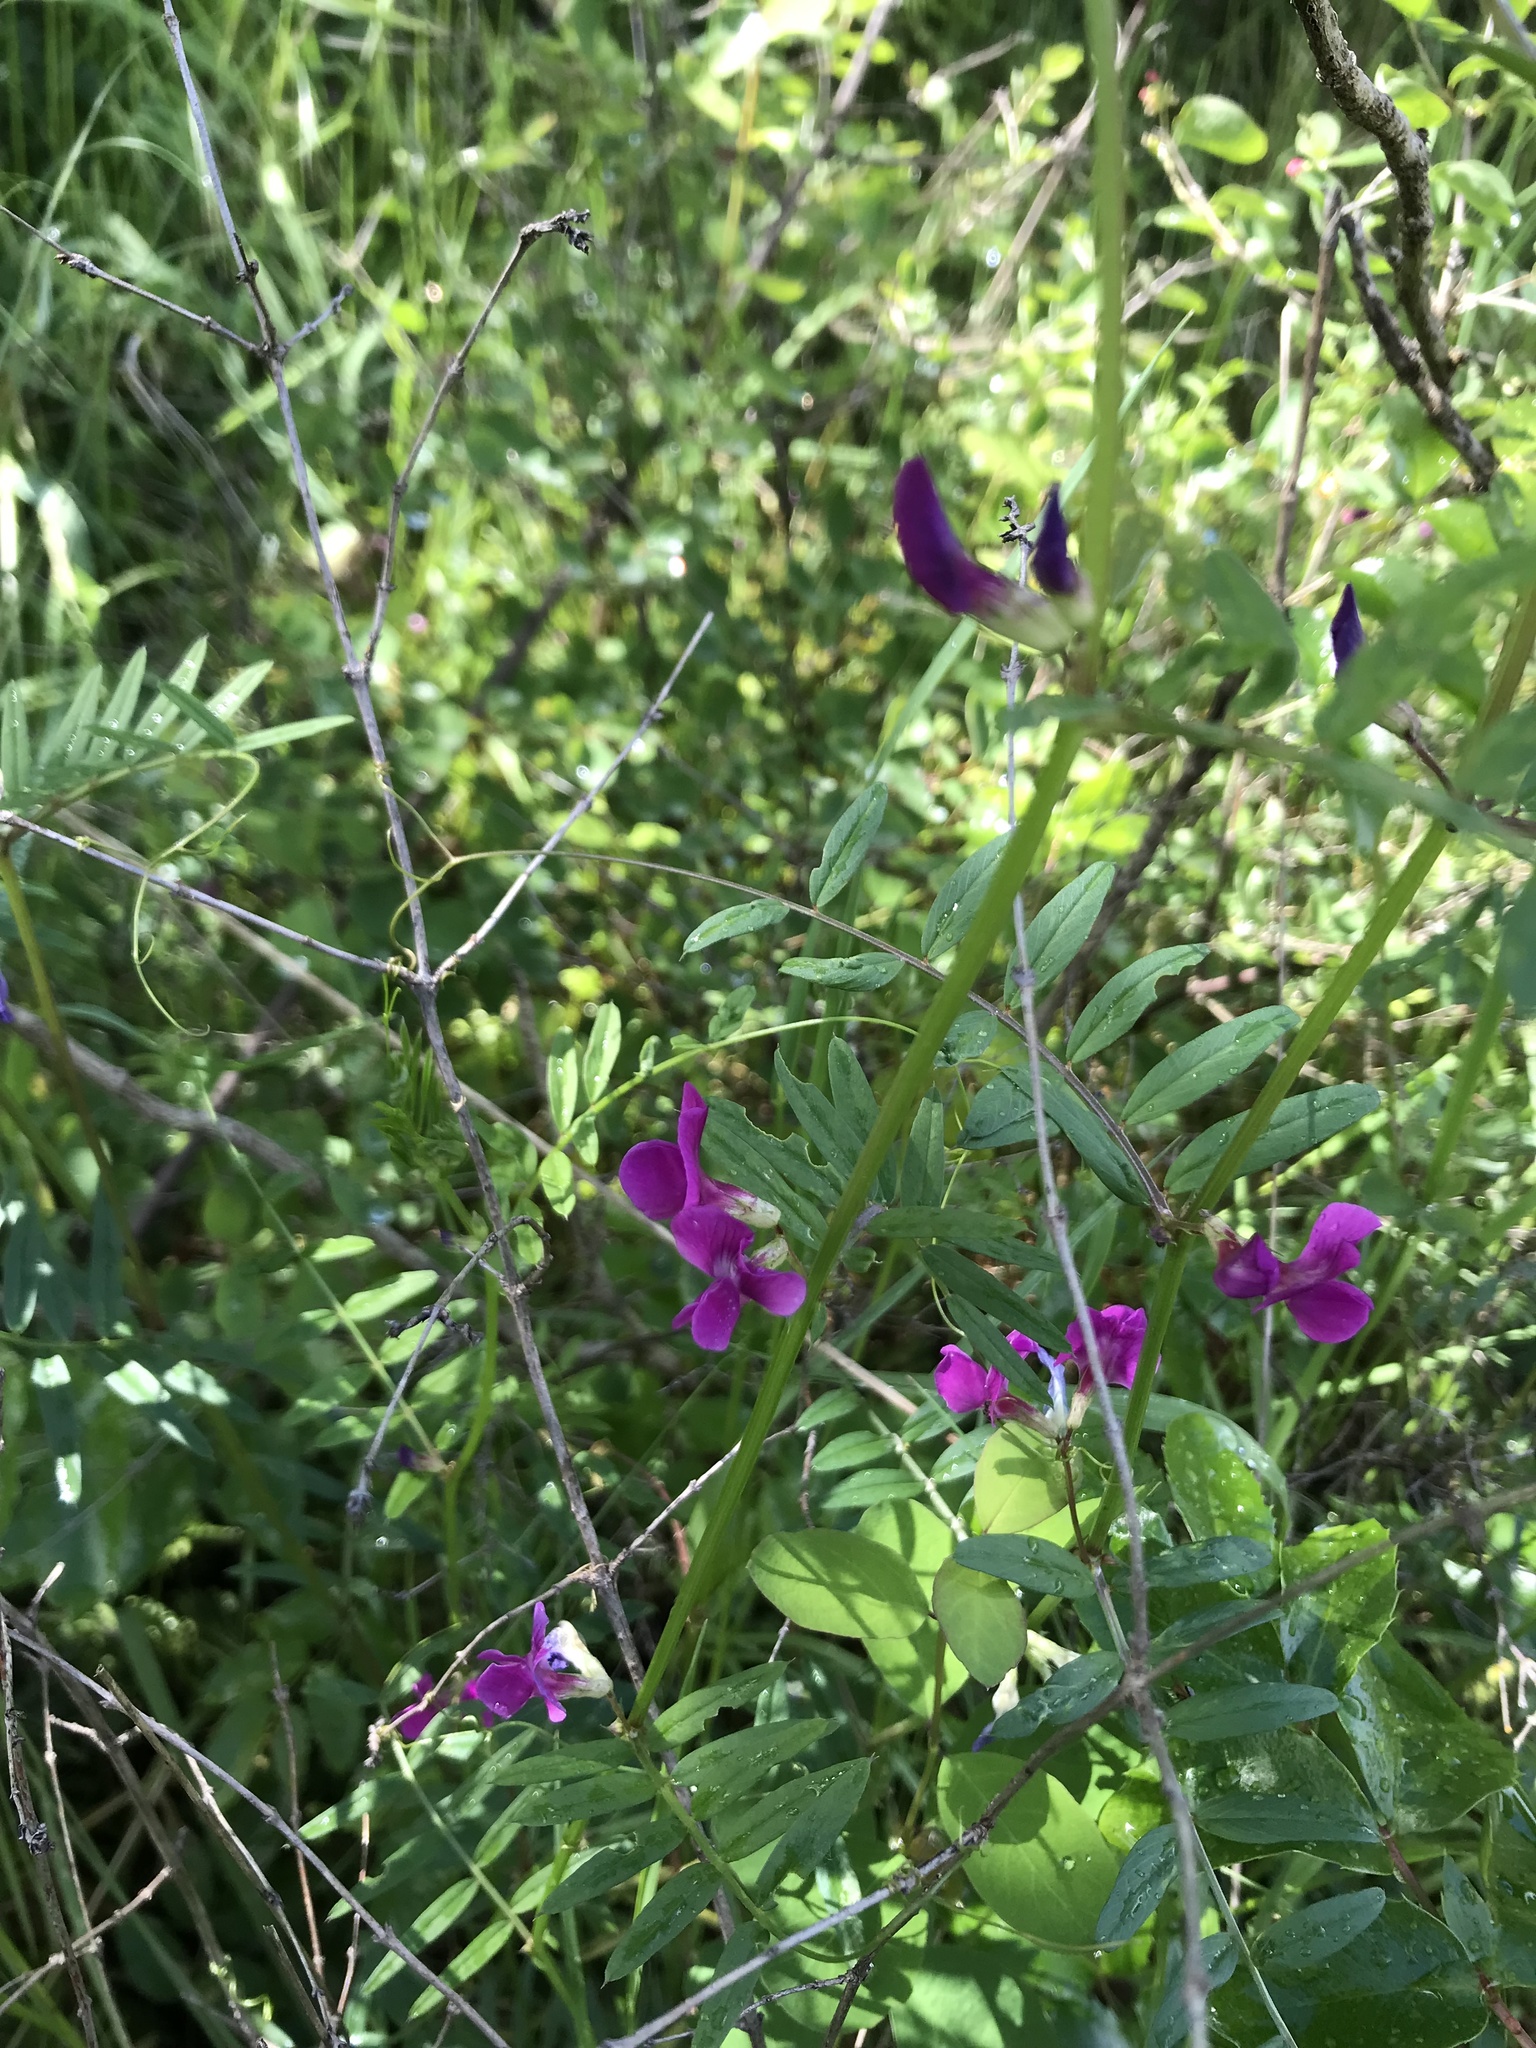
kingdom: Plantae
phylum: Tracheophyta
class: Magnoliopsida
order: Fabales
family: Fabaceae
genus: Vicia
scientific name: Vicia sativa
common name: Garden vetch
